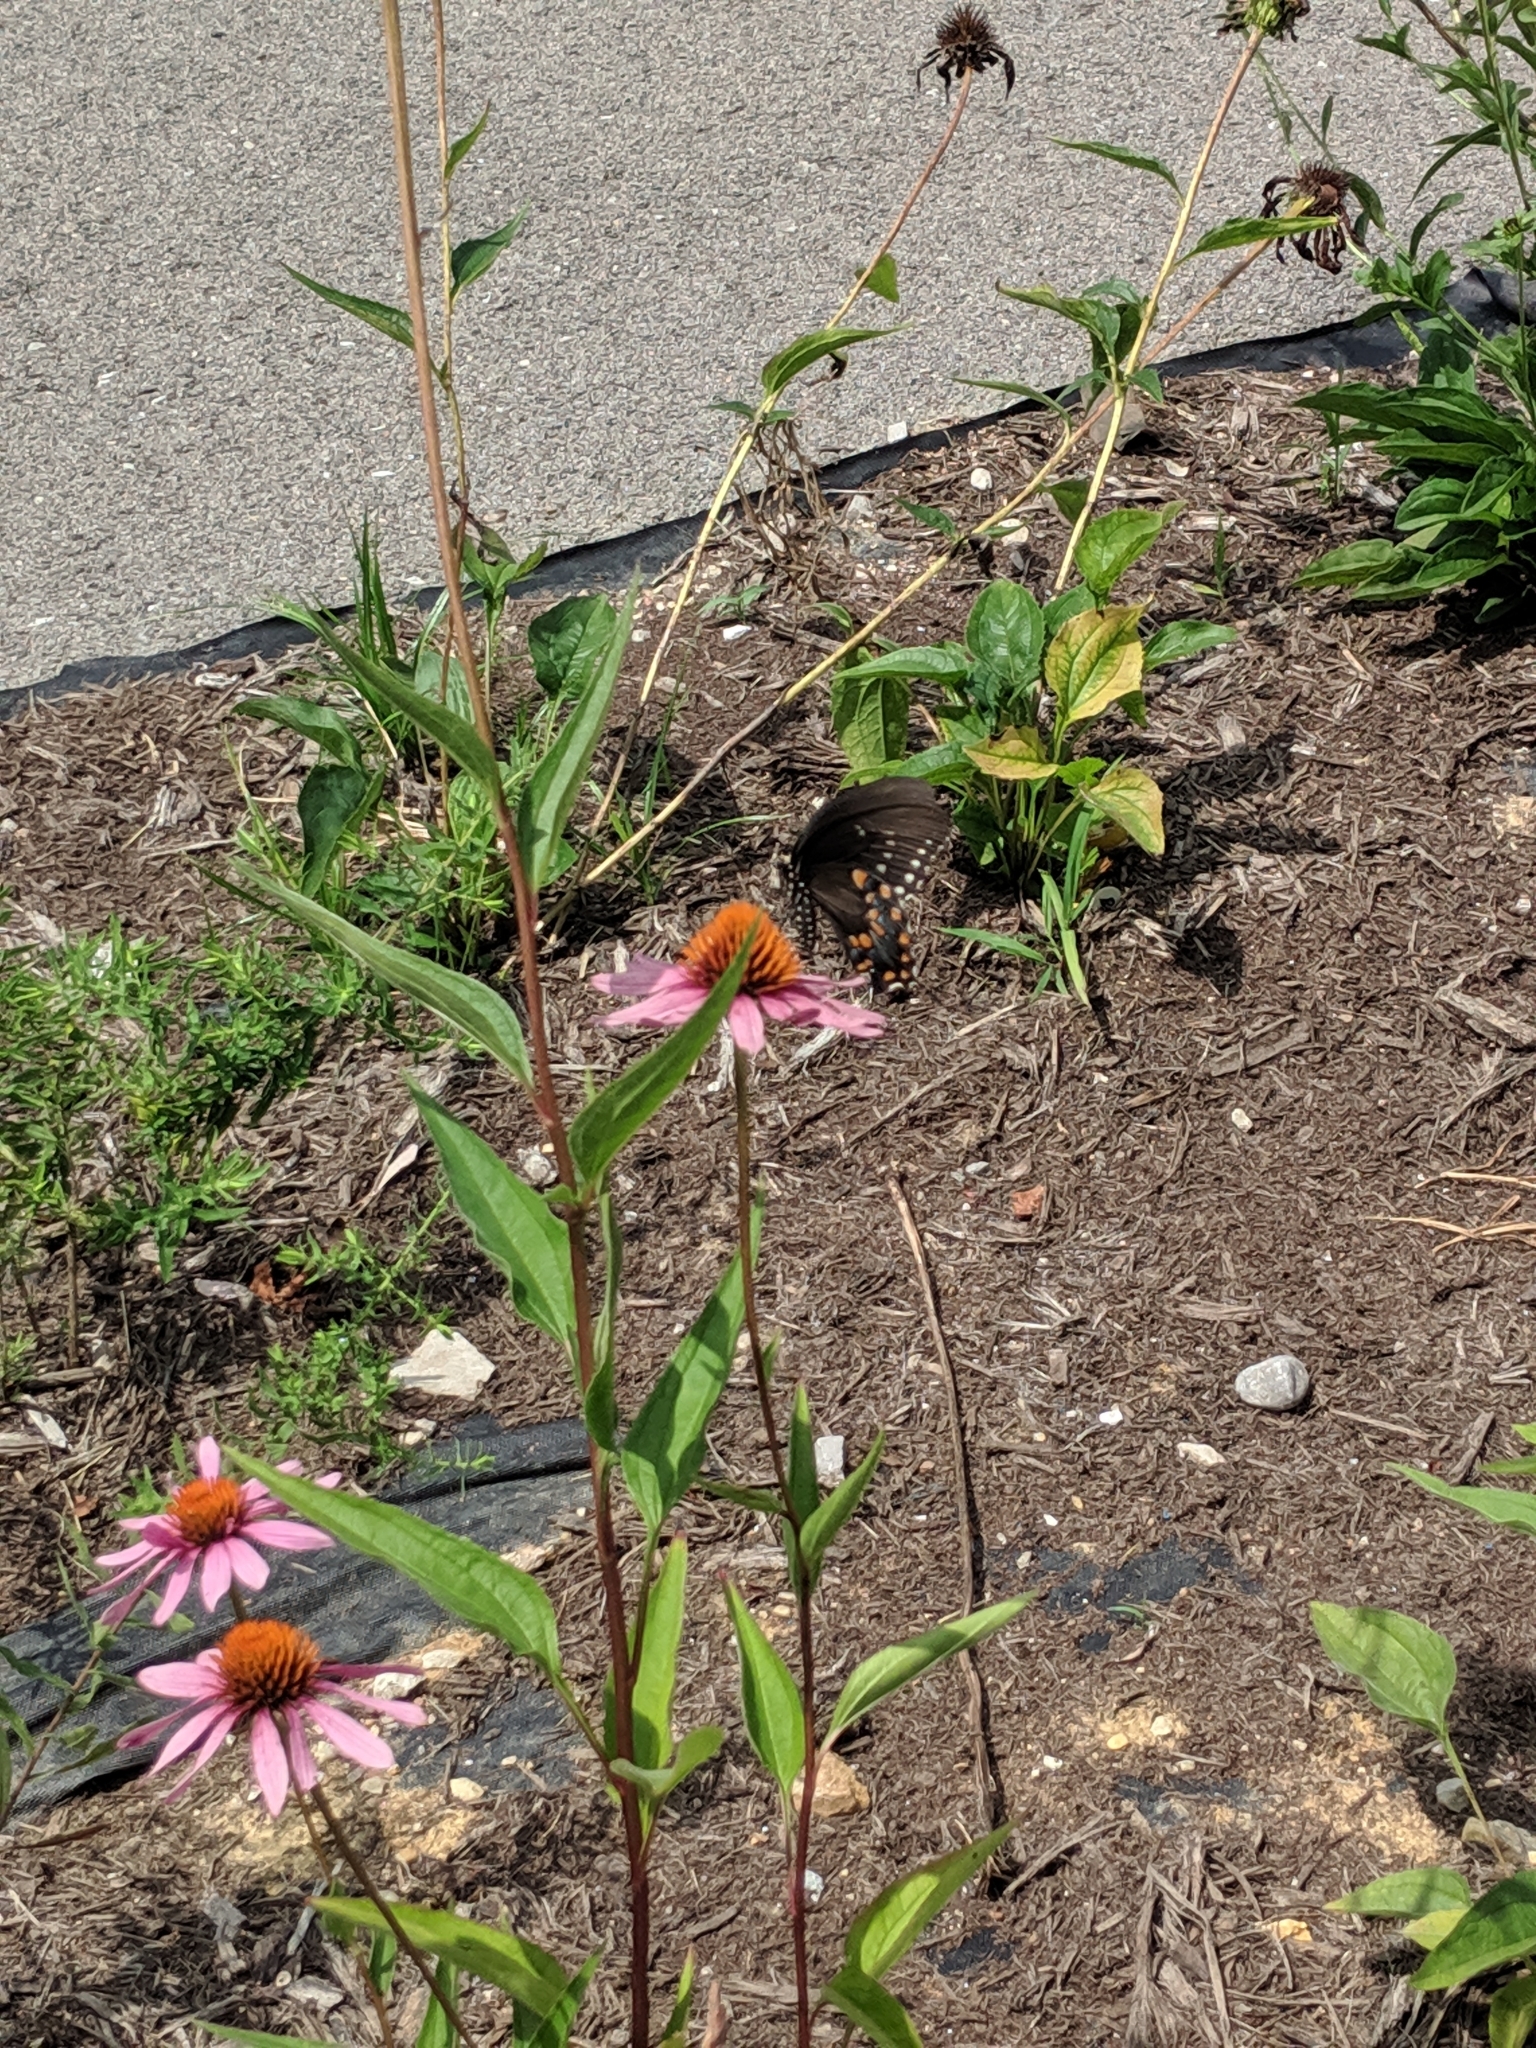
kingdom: Animalia
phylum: Arthropoda
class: Insecta
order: Lepidoptera
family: Papilionidae
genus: Papilio
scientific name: Papilio troilus
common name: Spicebush swallowtail
